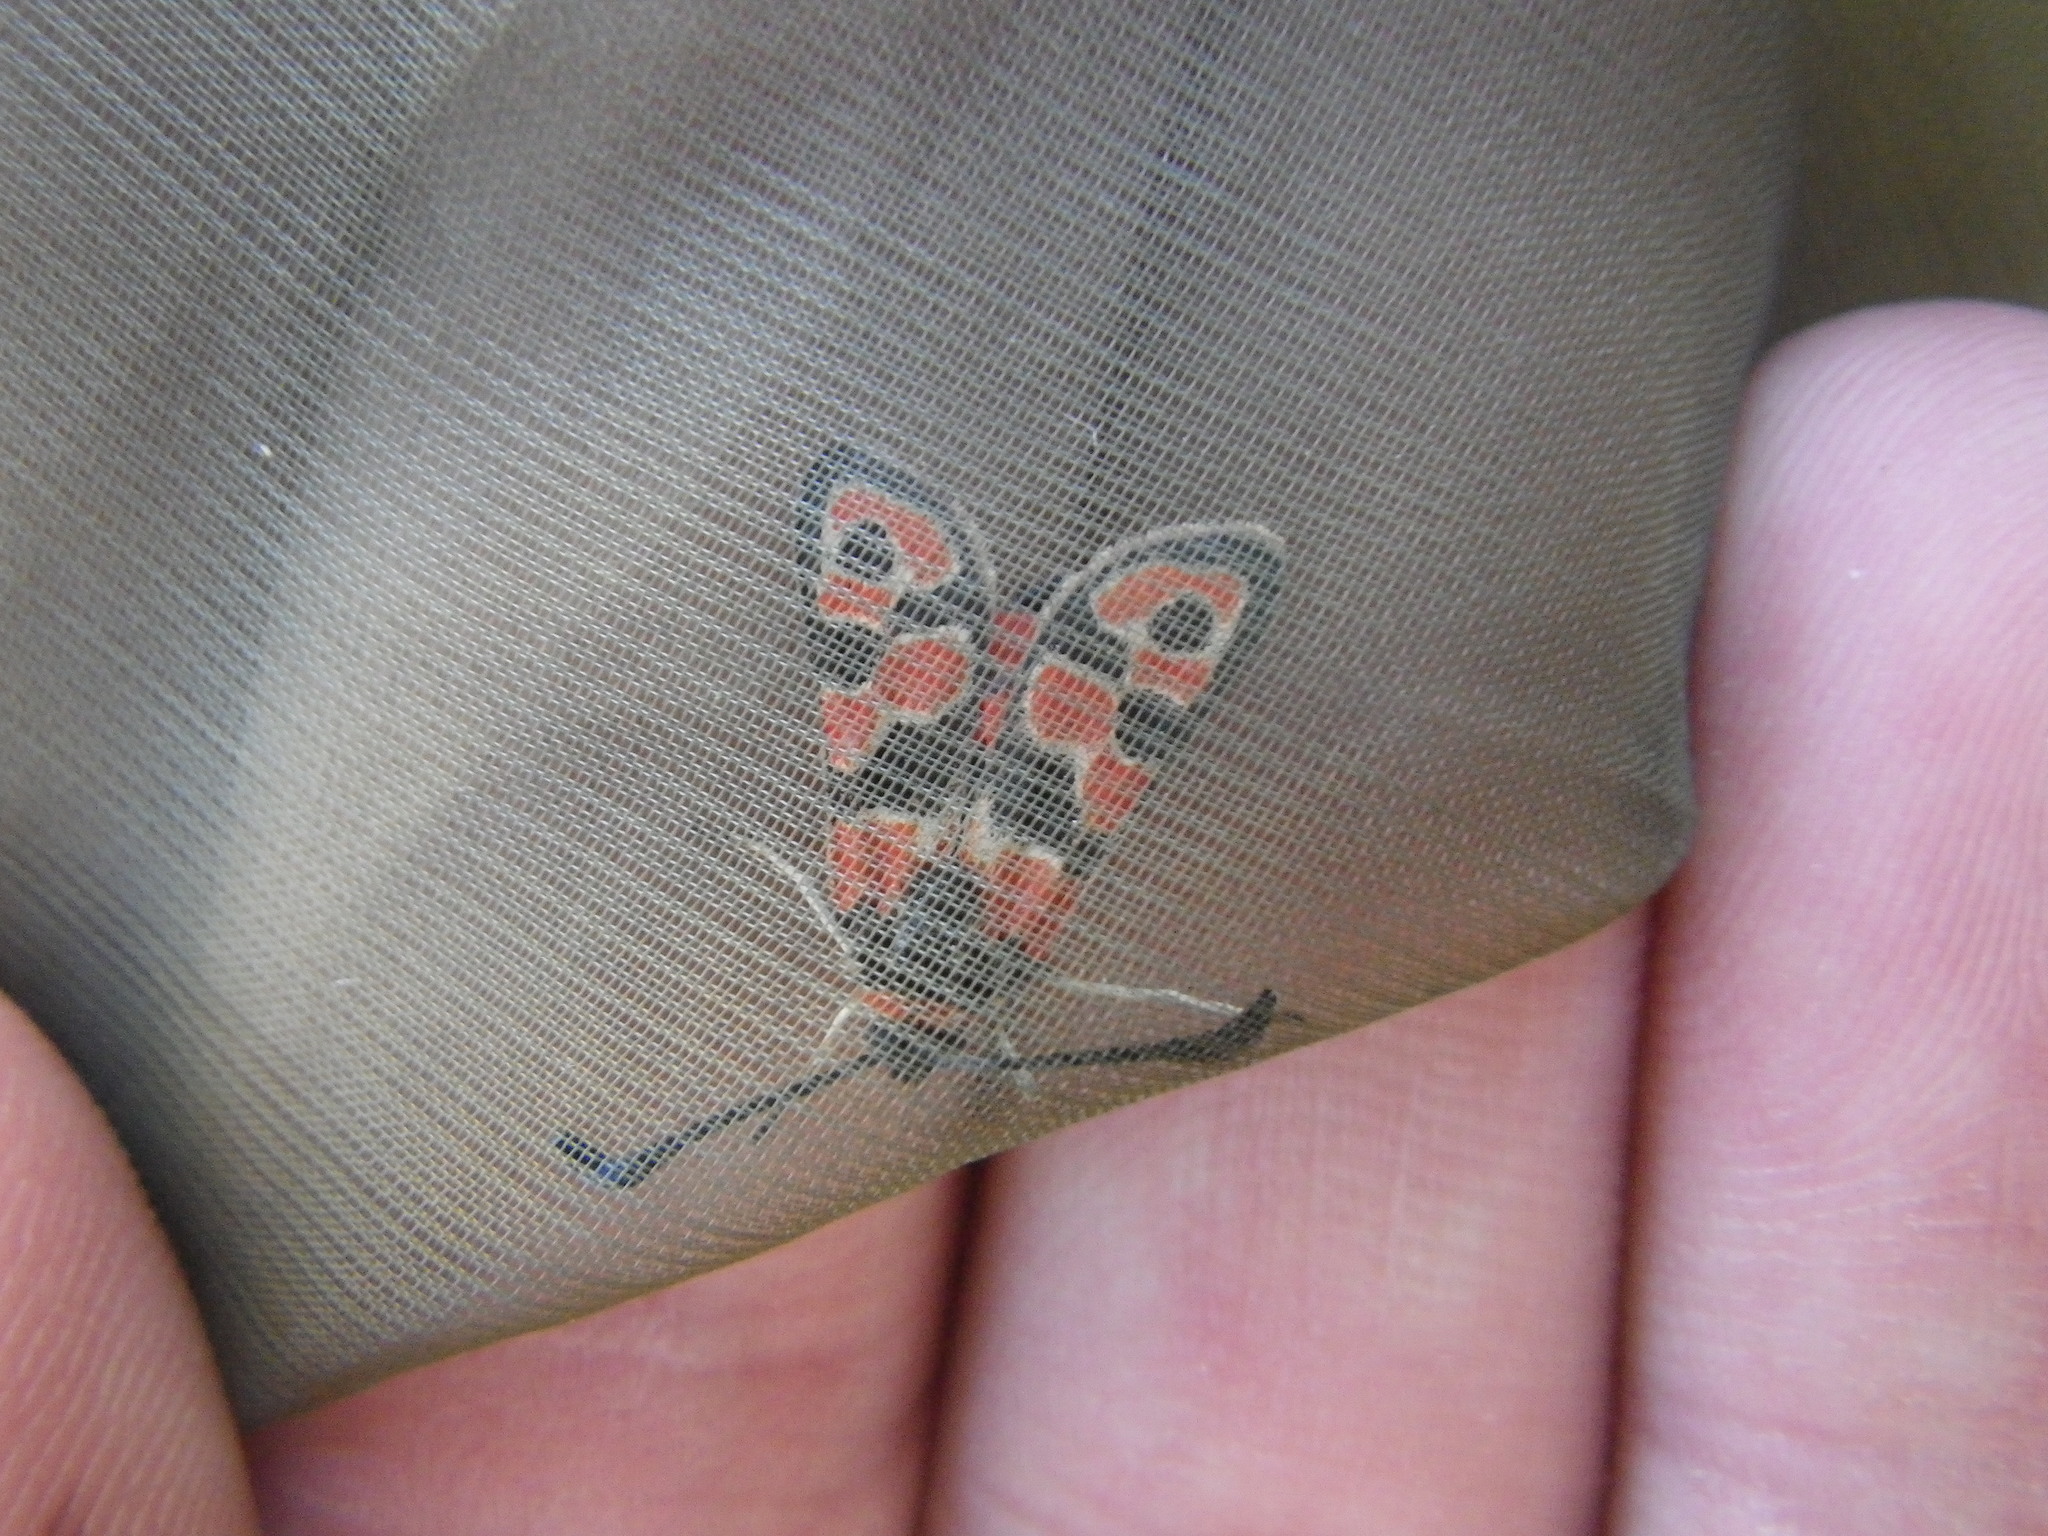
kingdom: Animalia
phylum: Arthropoda
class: Insecta
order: Lepidoptera
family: Zygaenidae
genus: Zygaena
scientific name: Zygaena fausta
